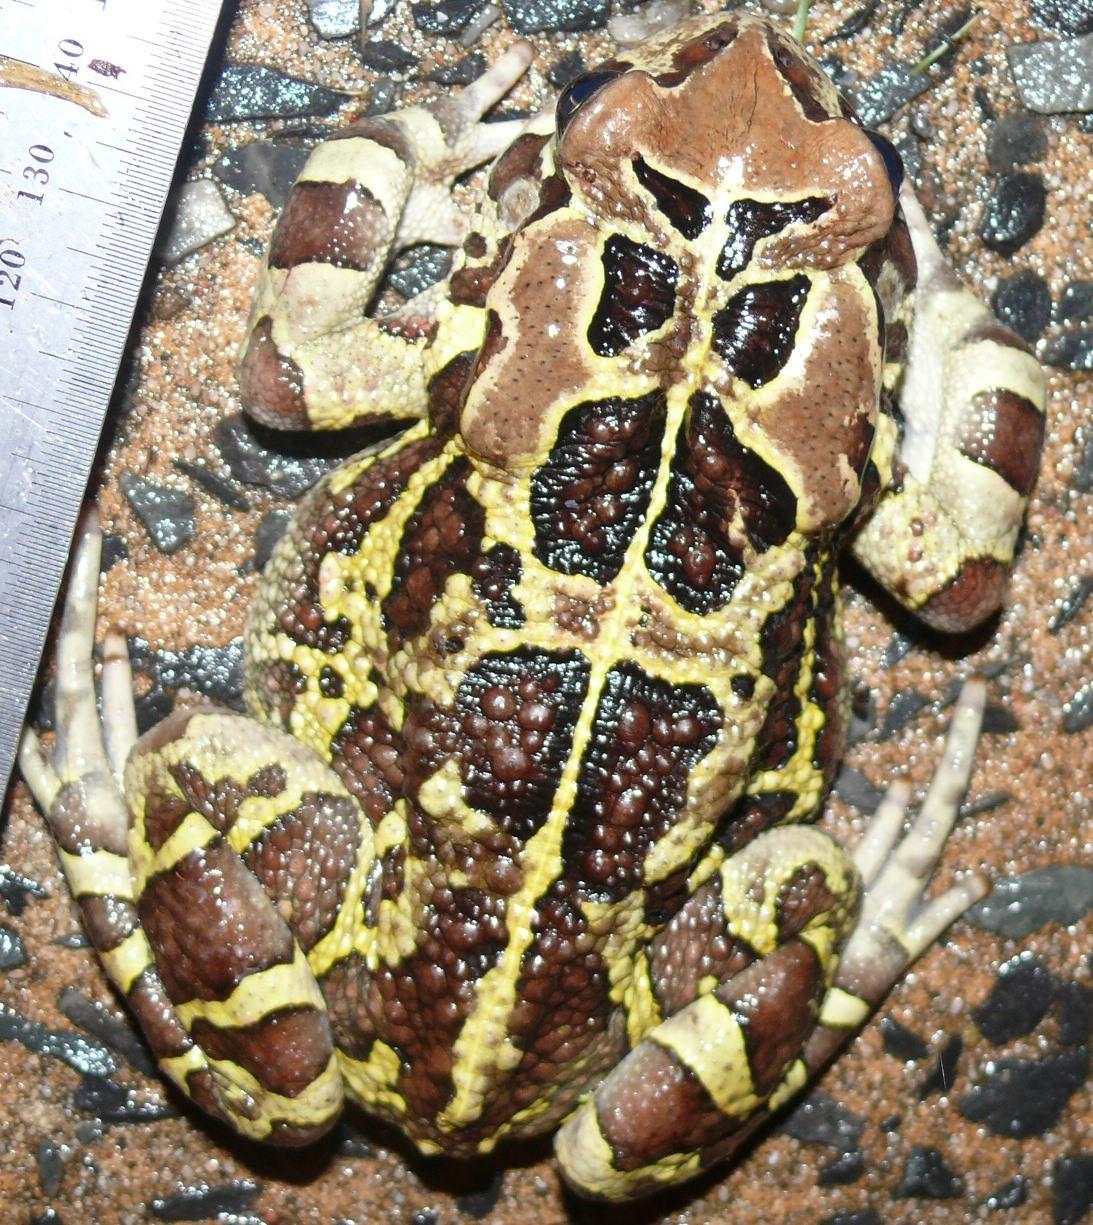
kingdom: Animalia
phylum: Chordata
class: Amphibia
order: Anura
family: Bufonidae
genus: Sclerophrys
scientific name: Sclerophrys pantherina
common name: Panther toad
